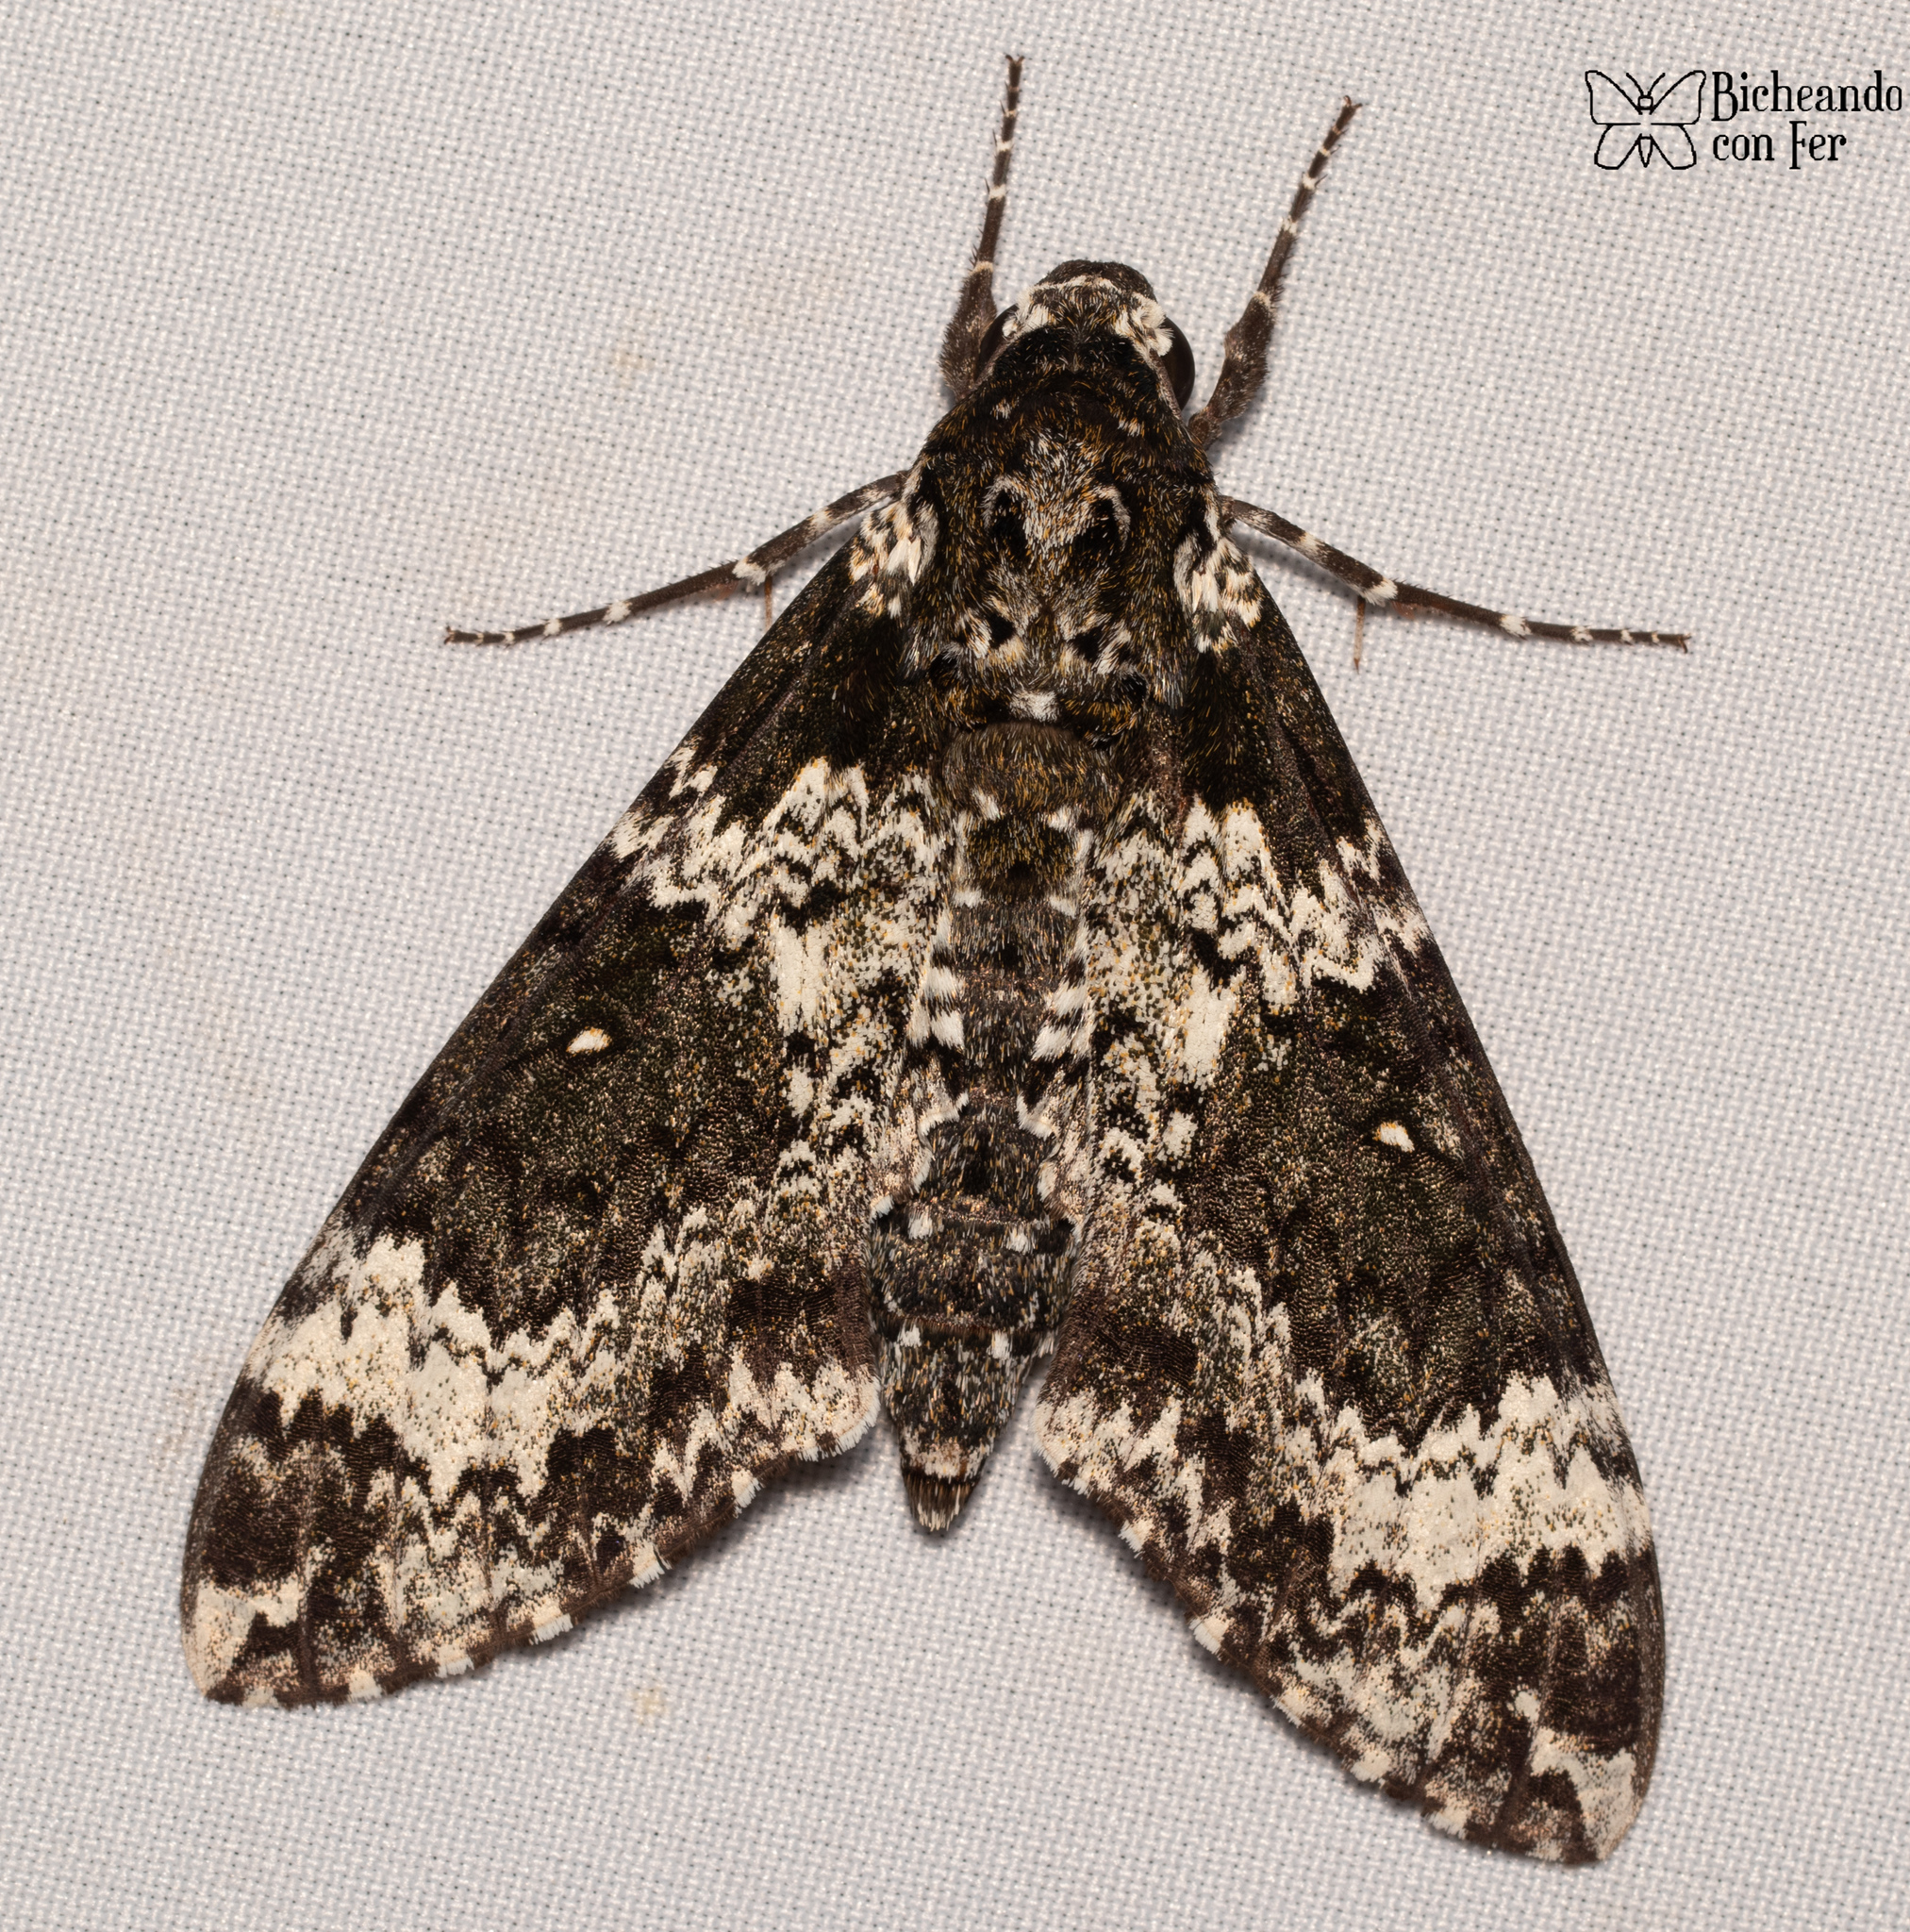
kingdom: Animalia
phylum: Arthropoda
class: Insecta
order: Lepidoptera
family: Sphingidae
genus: Manduca
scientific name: Manduca rustica
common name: Rustic sphinx
